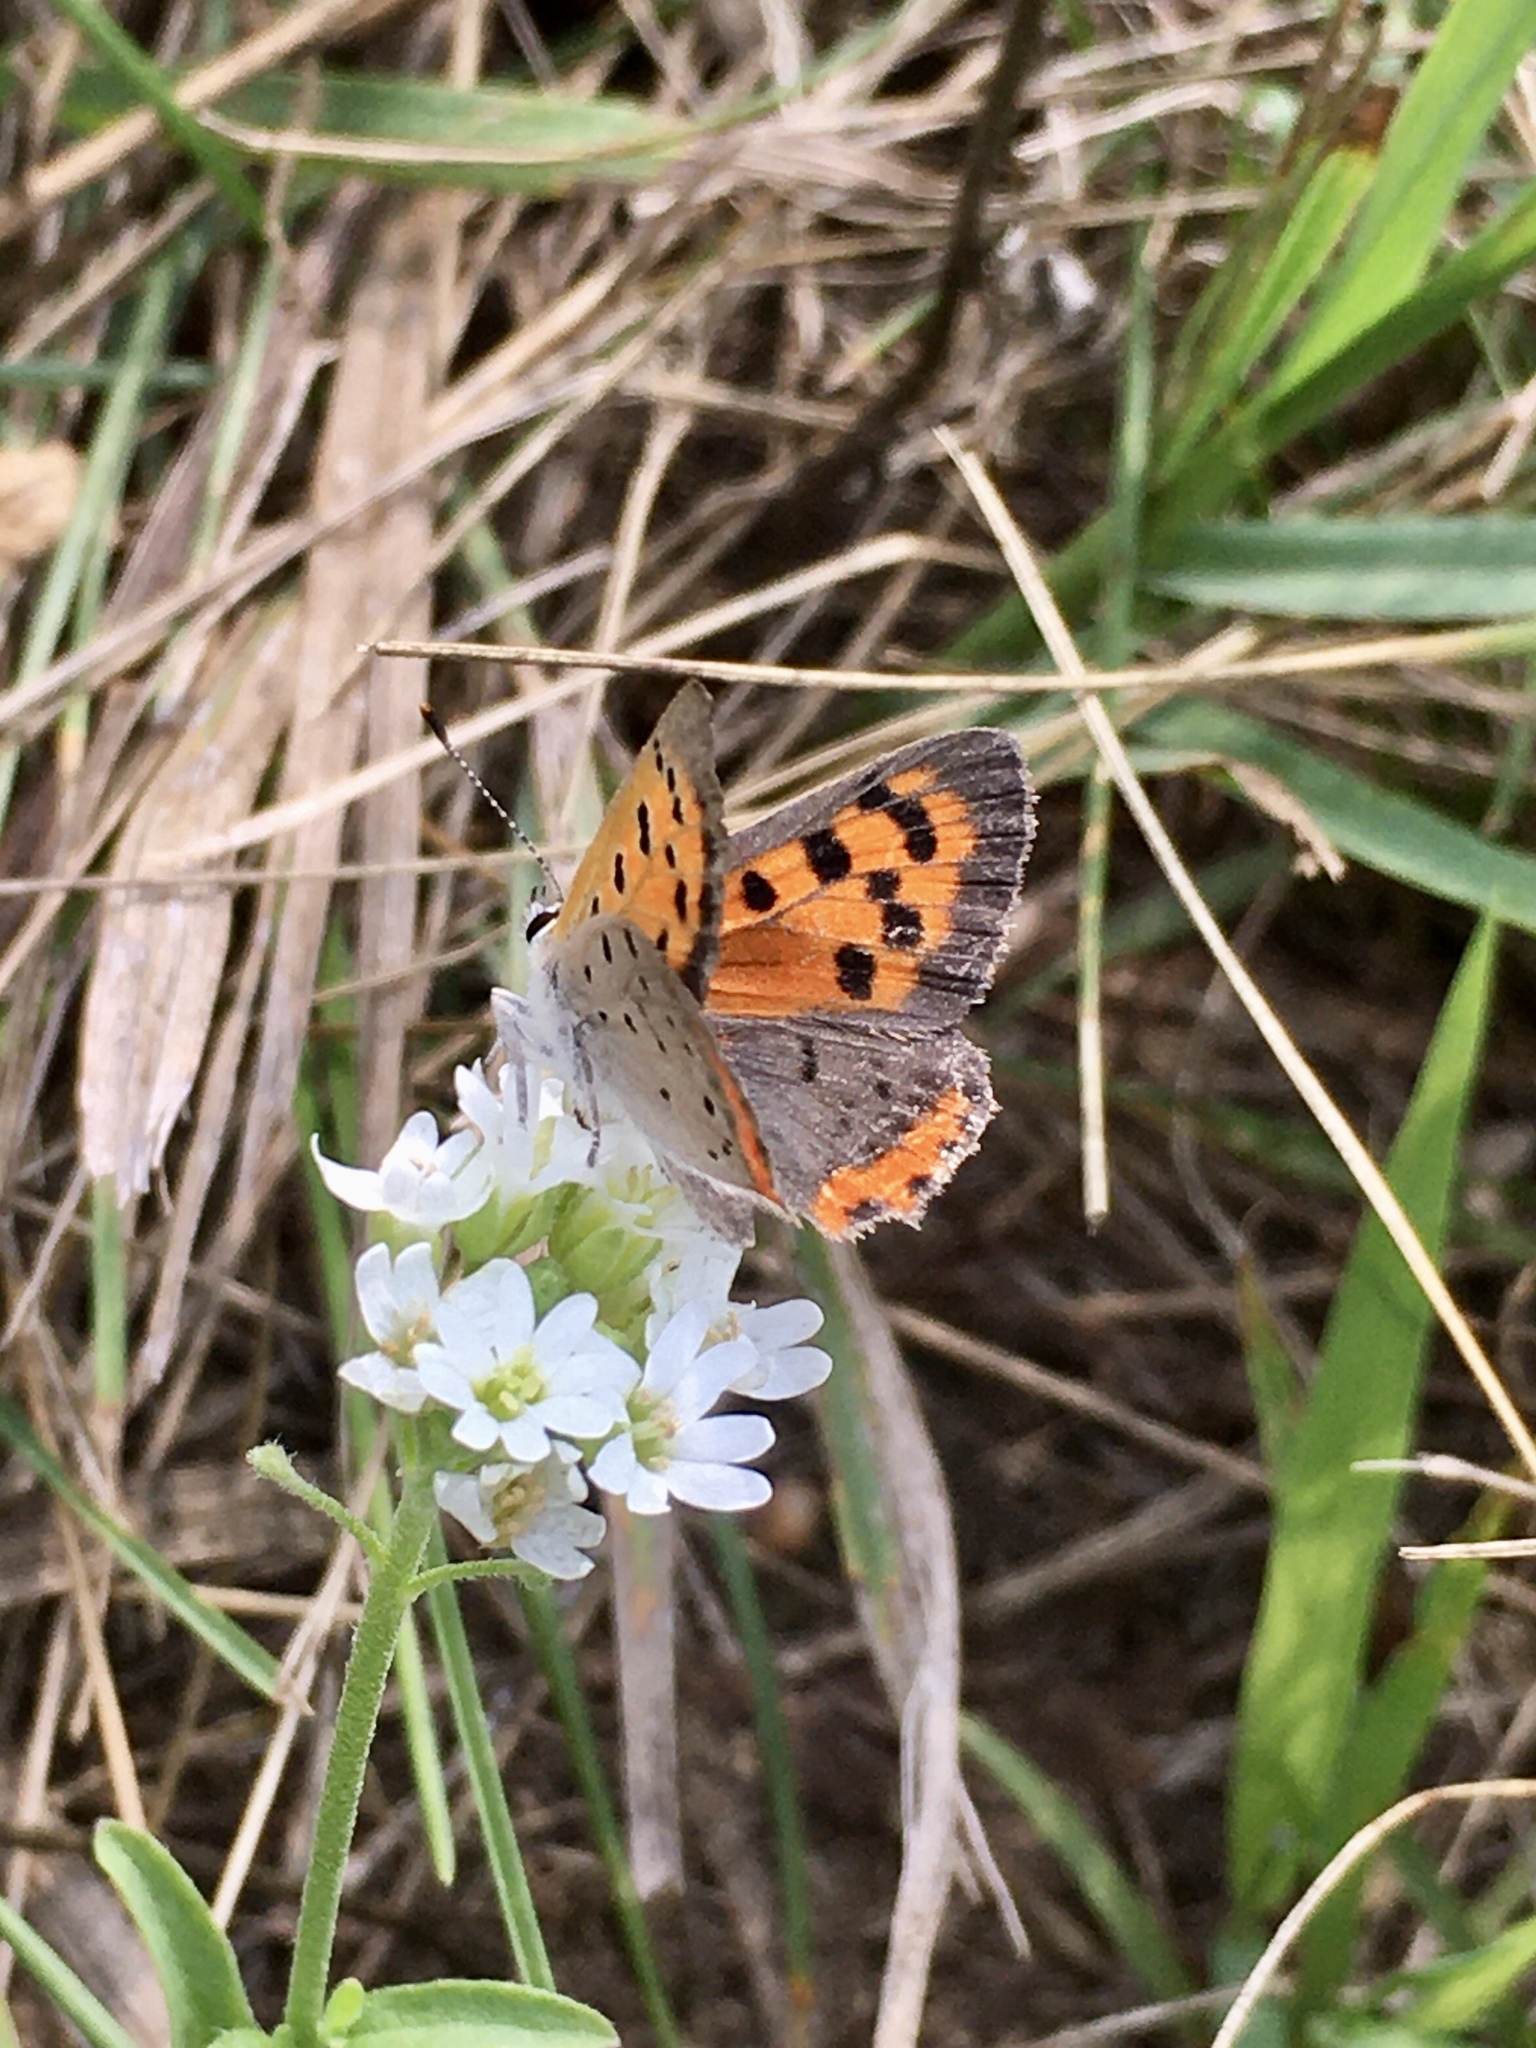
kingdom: Animalia
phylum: Arthropoda
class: Insecta
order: Lepidoptera
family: Lycaenidae
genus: Lycaena
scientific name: Lycaena hypophlaeas
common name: American copper
